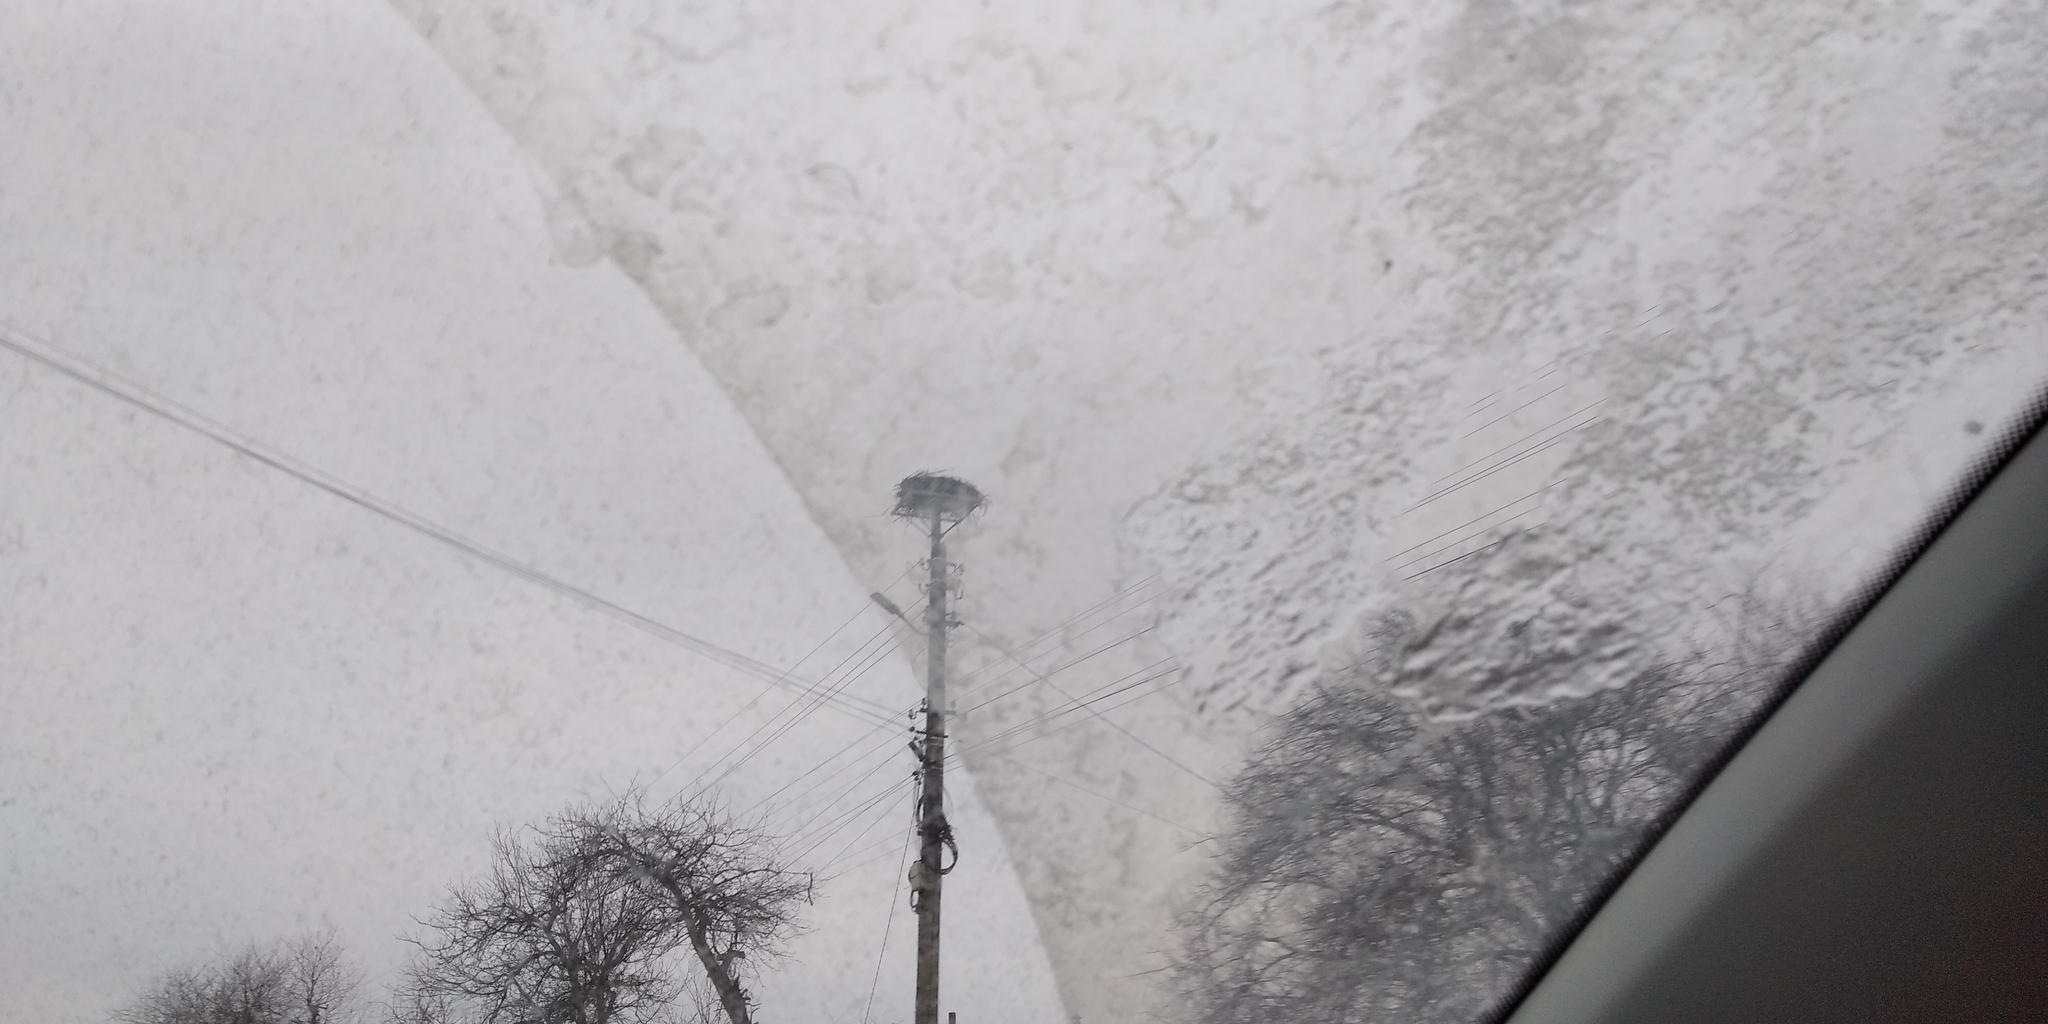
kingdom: Animalia
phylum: Chordata
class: Aves
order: Ciconiiformes
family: Ciconiidae
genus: Ciconia
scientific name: Ciconia ciconia
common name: White stork
